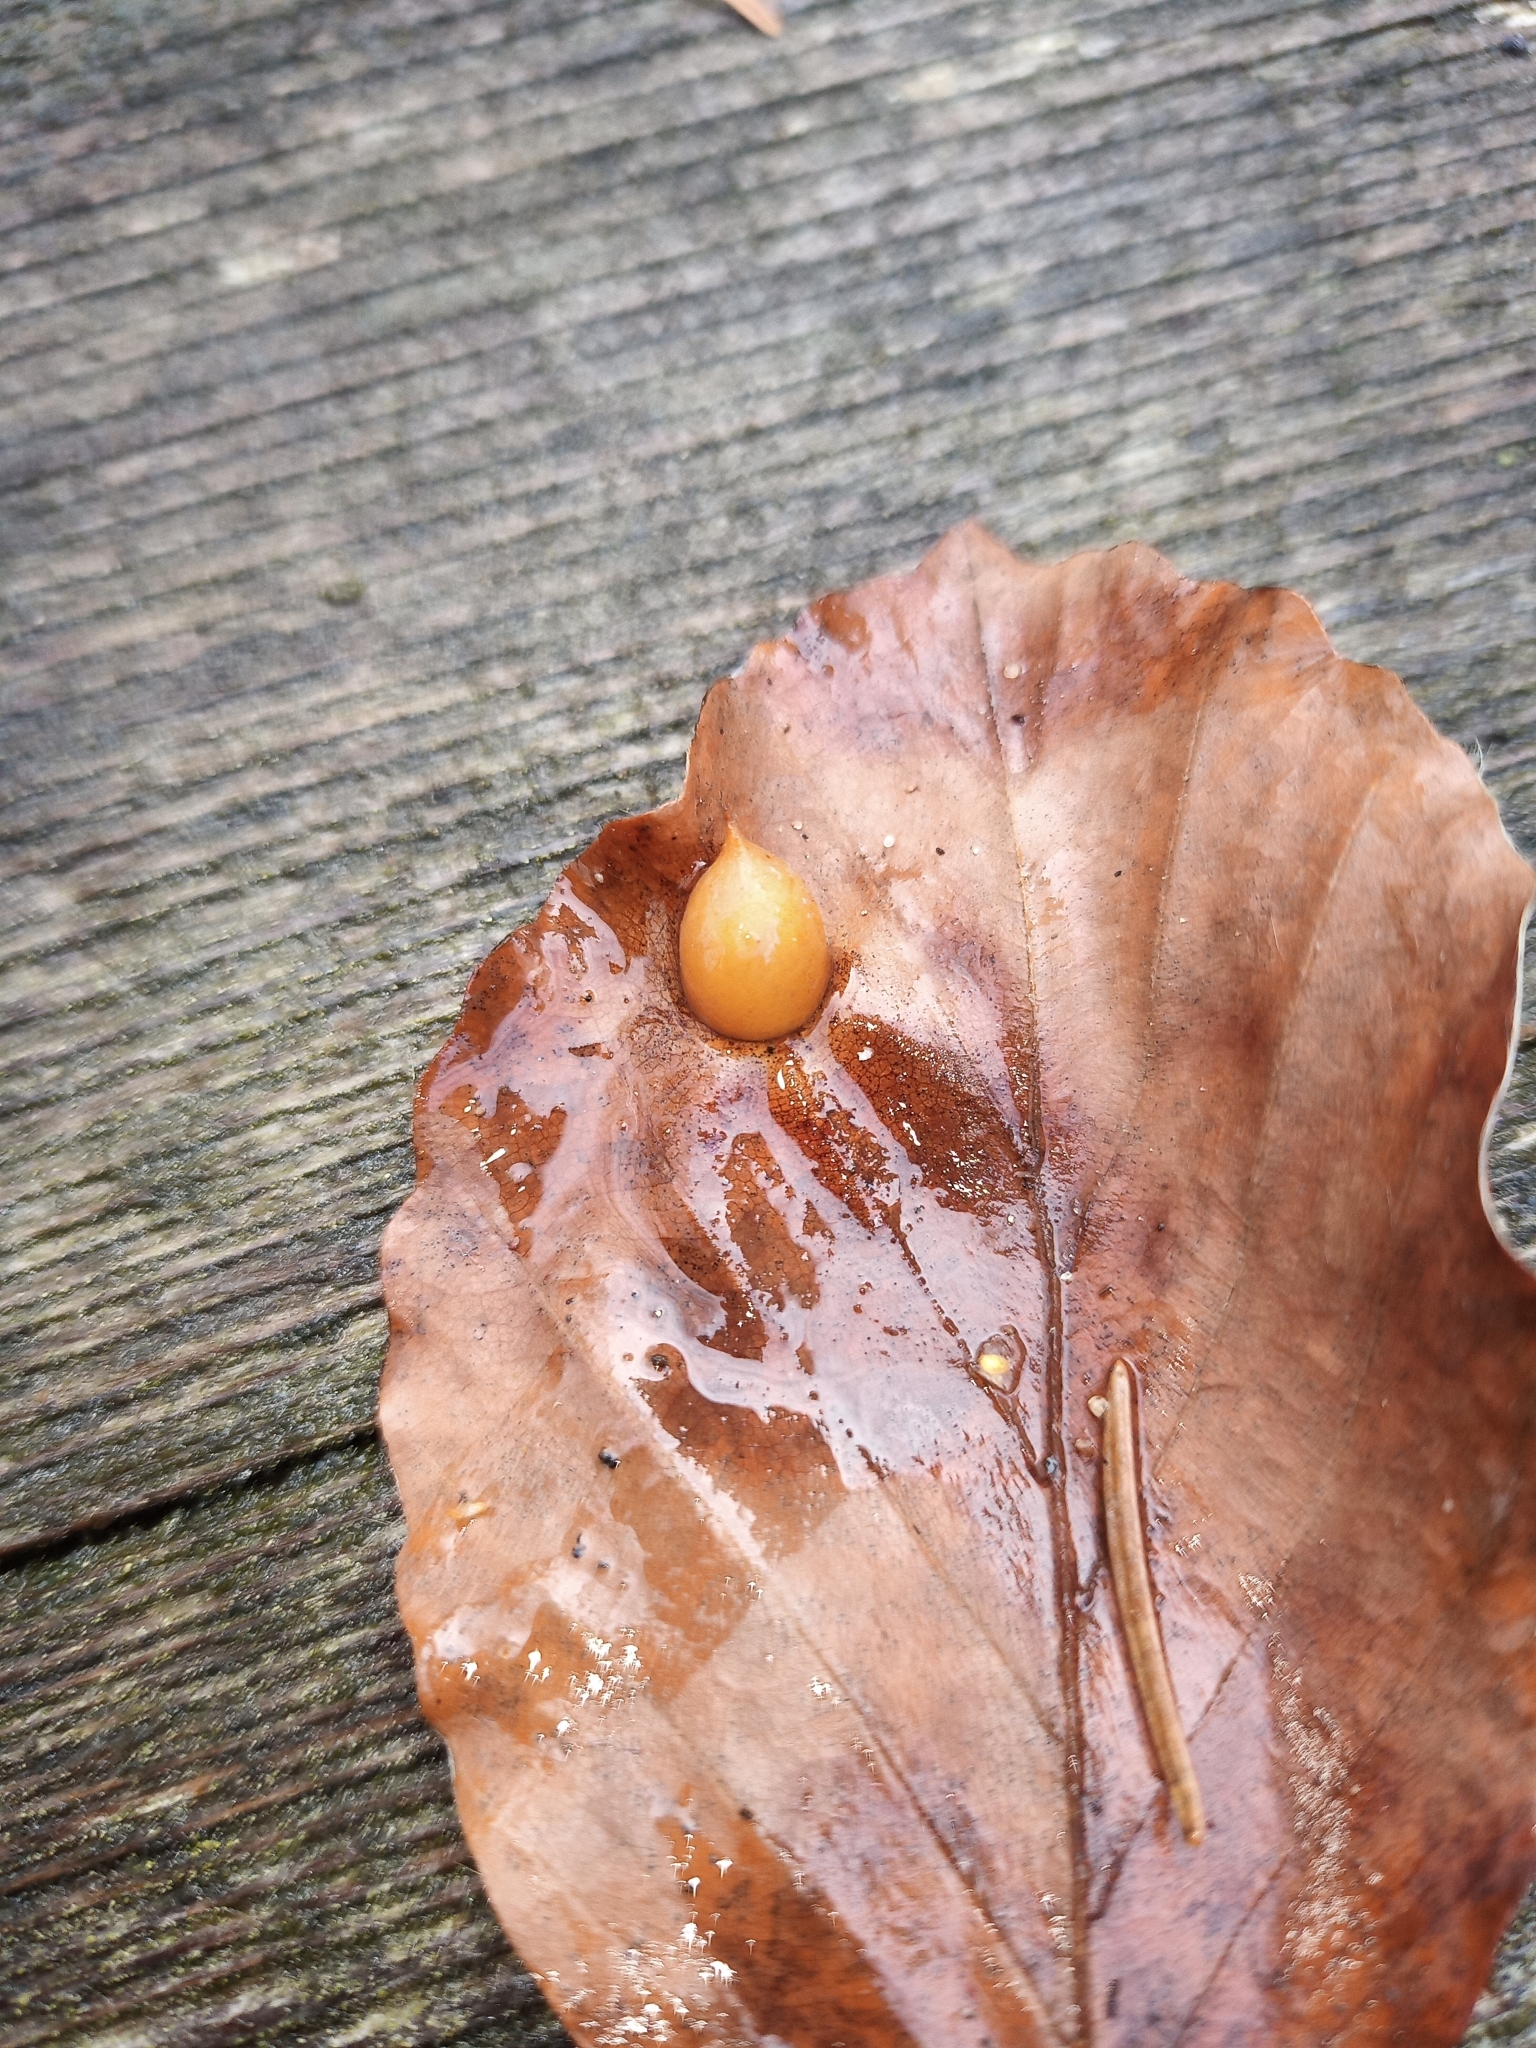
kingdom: Animalia
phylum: Arthropoda
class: Insecta
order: Diptera
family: Cecidomyiidae
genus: Mikiola
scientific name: Mikiola fagi
